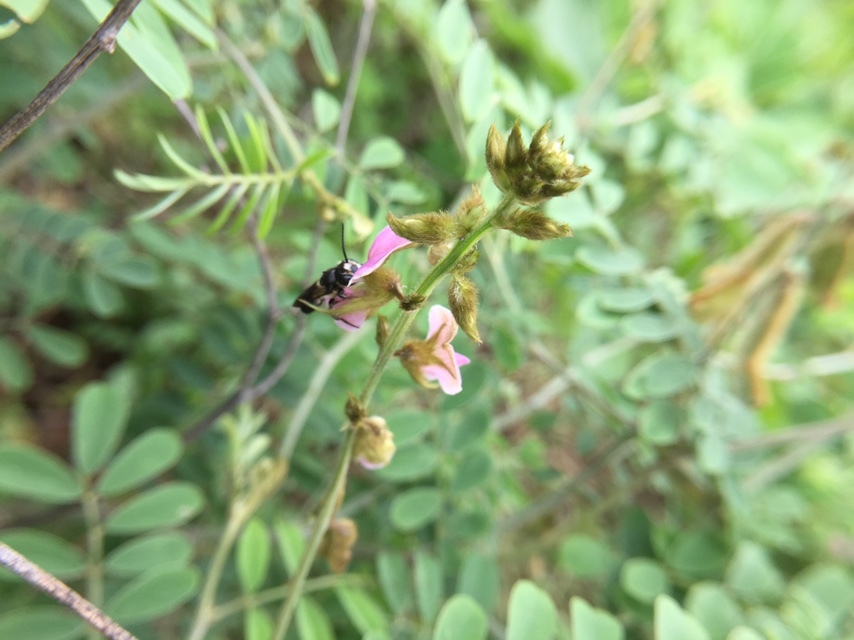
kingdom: Animalia
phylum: Arthropoda
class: Insecta
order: Hymenoptera
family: Megachilidae
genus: Megachile
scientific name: Megachile disjuncta
